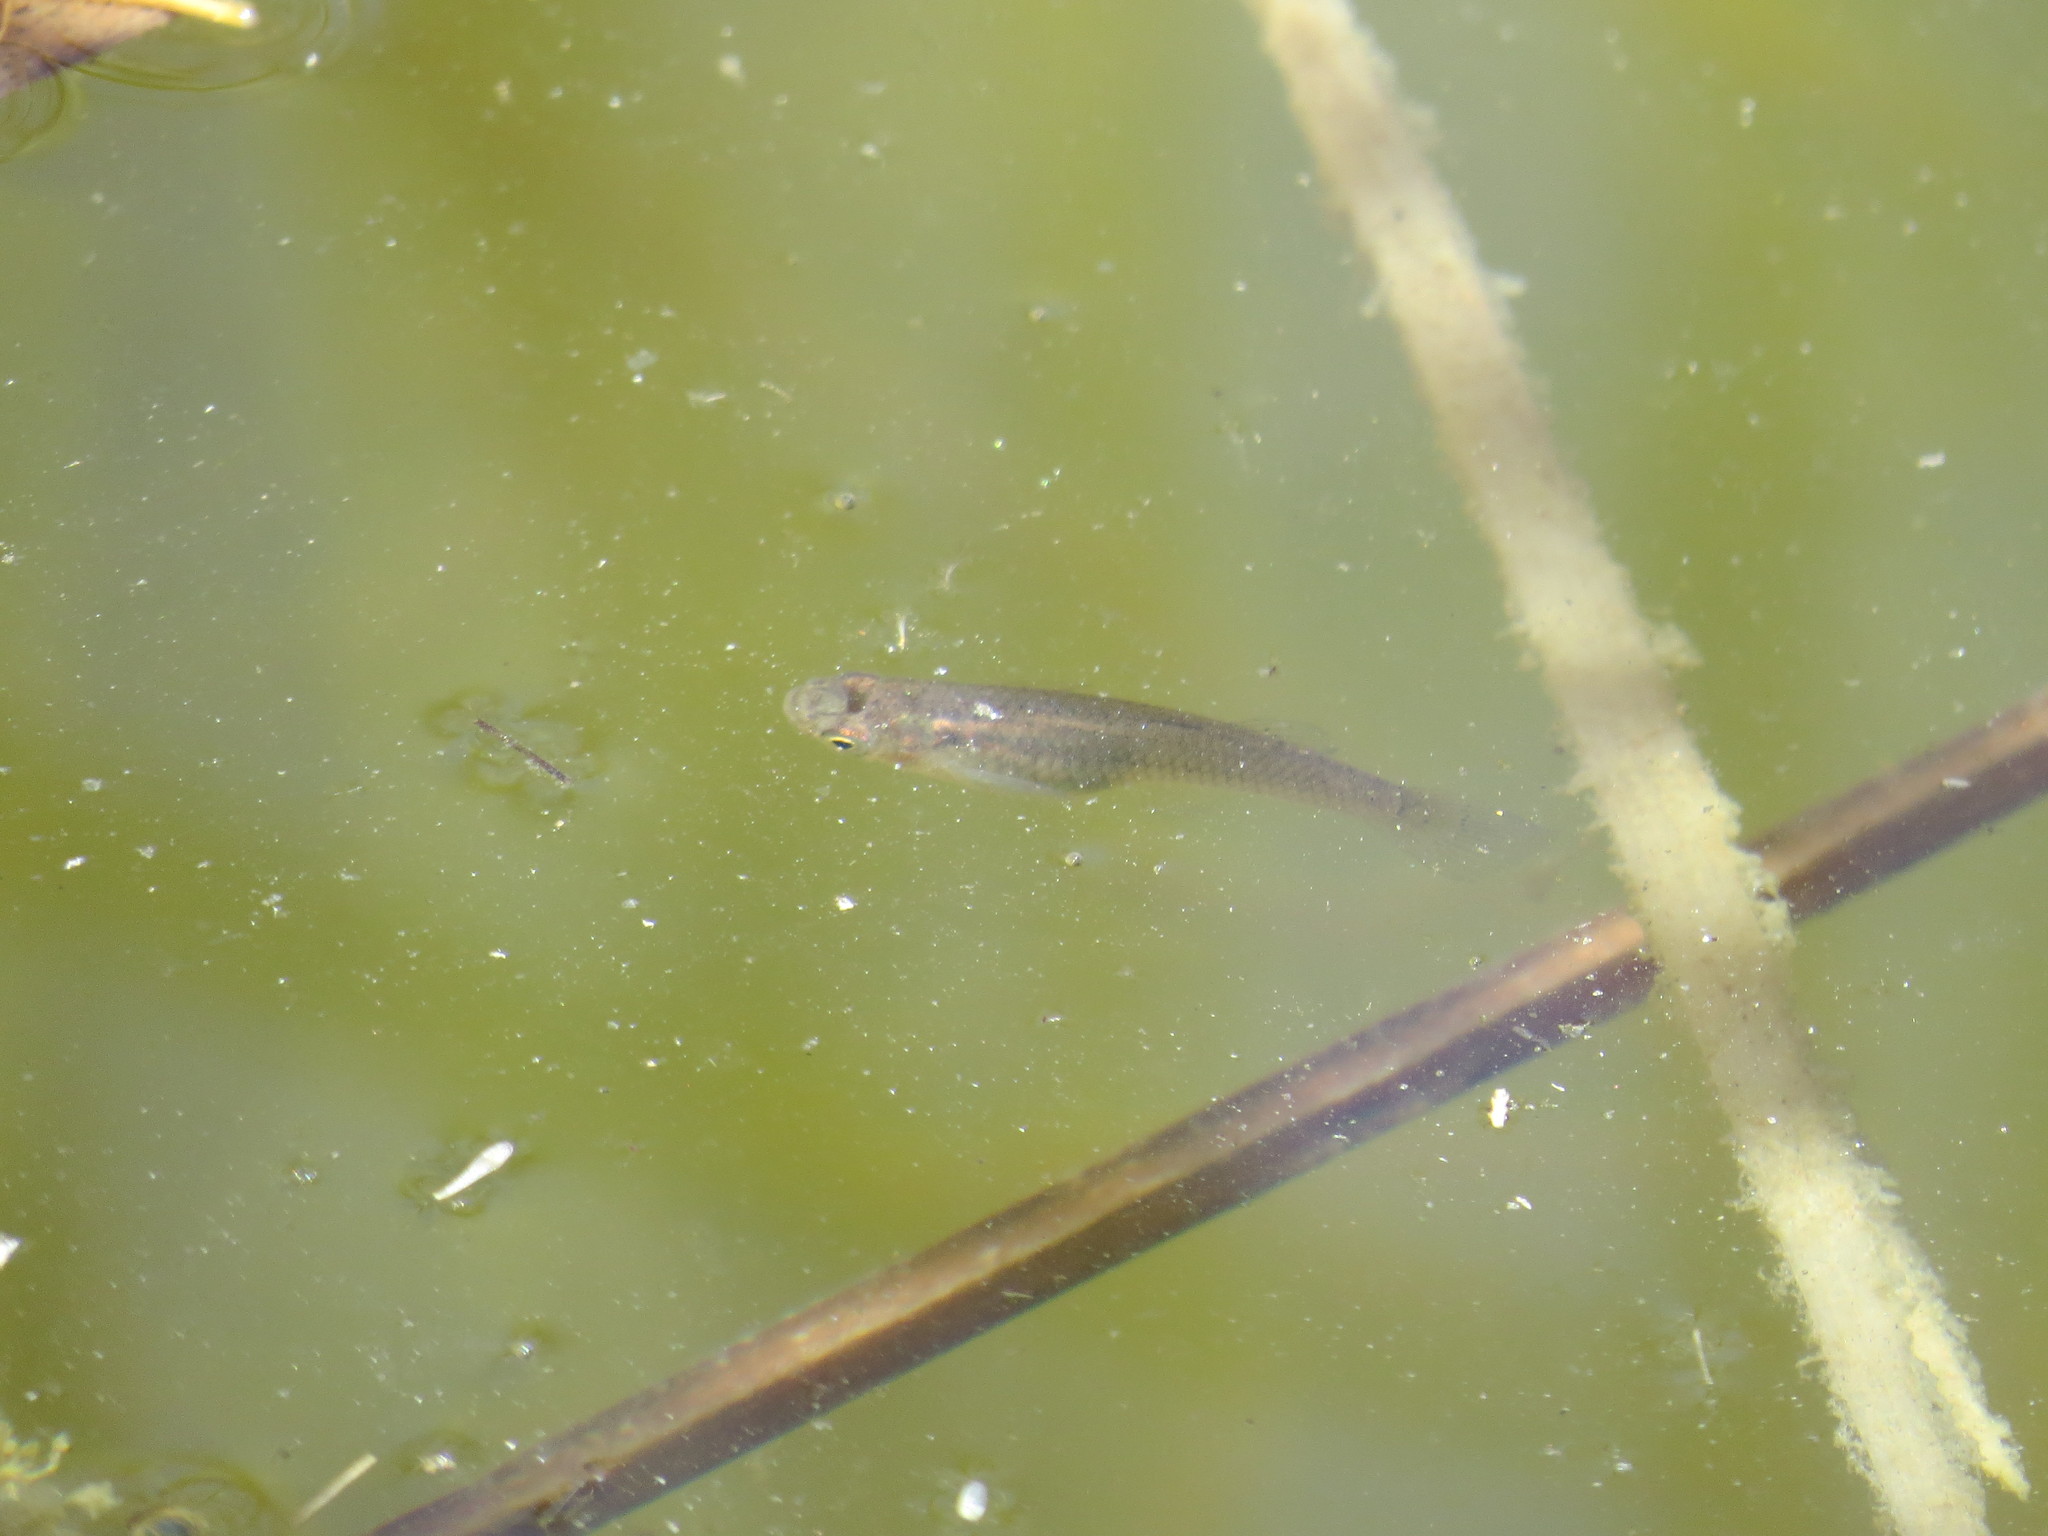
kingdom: Animalia
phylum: Chordata
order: Cyprinodontiformes
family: Poeciliidae
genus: Gambusia
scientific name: Gambusia affinis
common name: Mosquitofish
